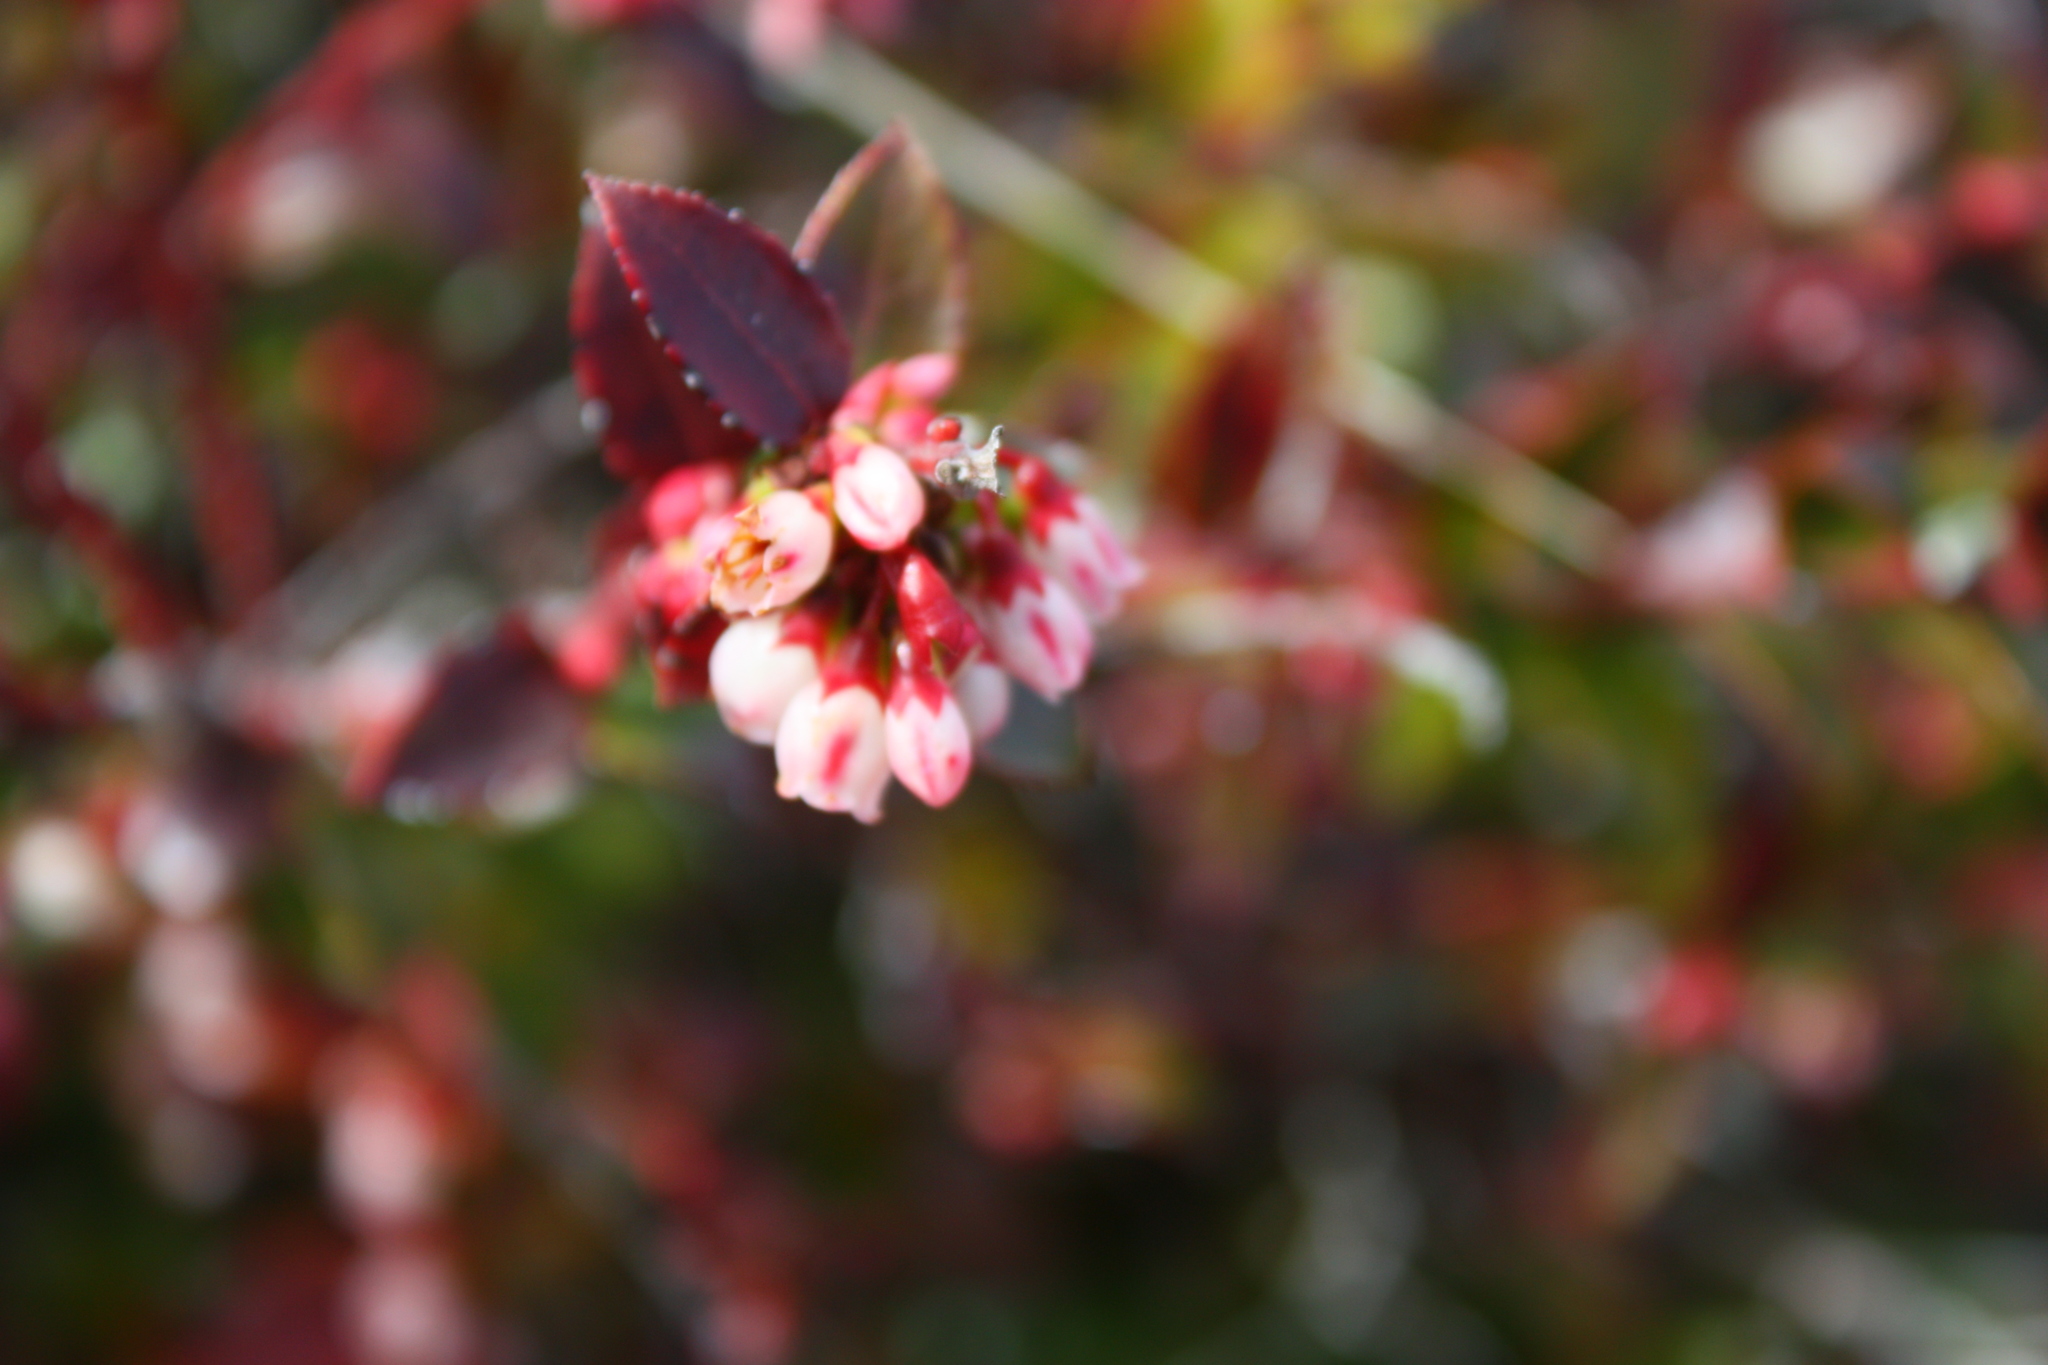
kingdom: Plantae
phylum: Tracheophyta
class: Magnoliopsida
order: Ericales
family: Ericaceae
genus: Vaccinium
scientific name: Vaccinium ovatum
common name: California-huckleberry
